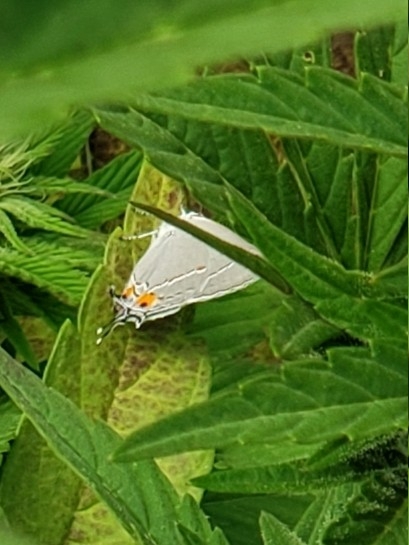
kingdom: Animalia
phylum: Arthropoda
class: Insecta
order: Lepidoptera
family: Lycaenidae
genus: Strymon
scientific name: Strymon melinus
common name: Gray hairstreak
